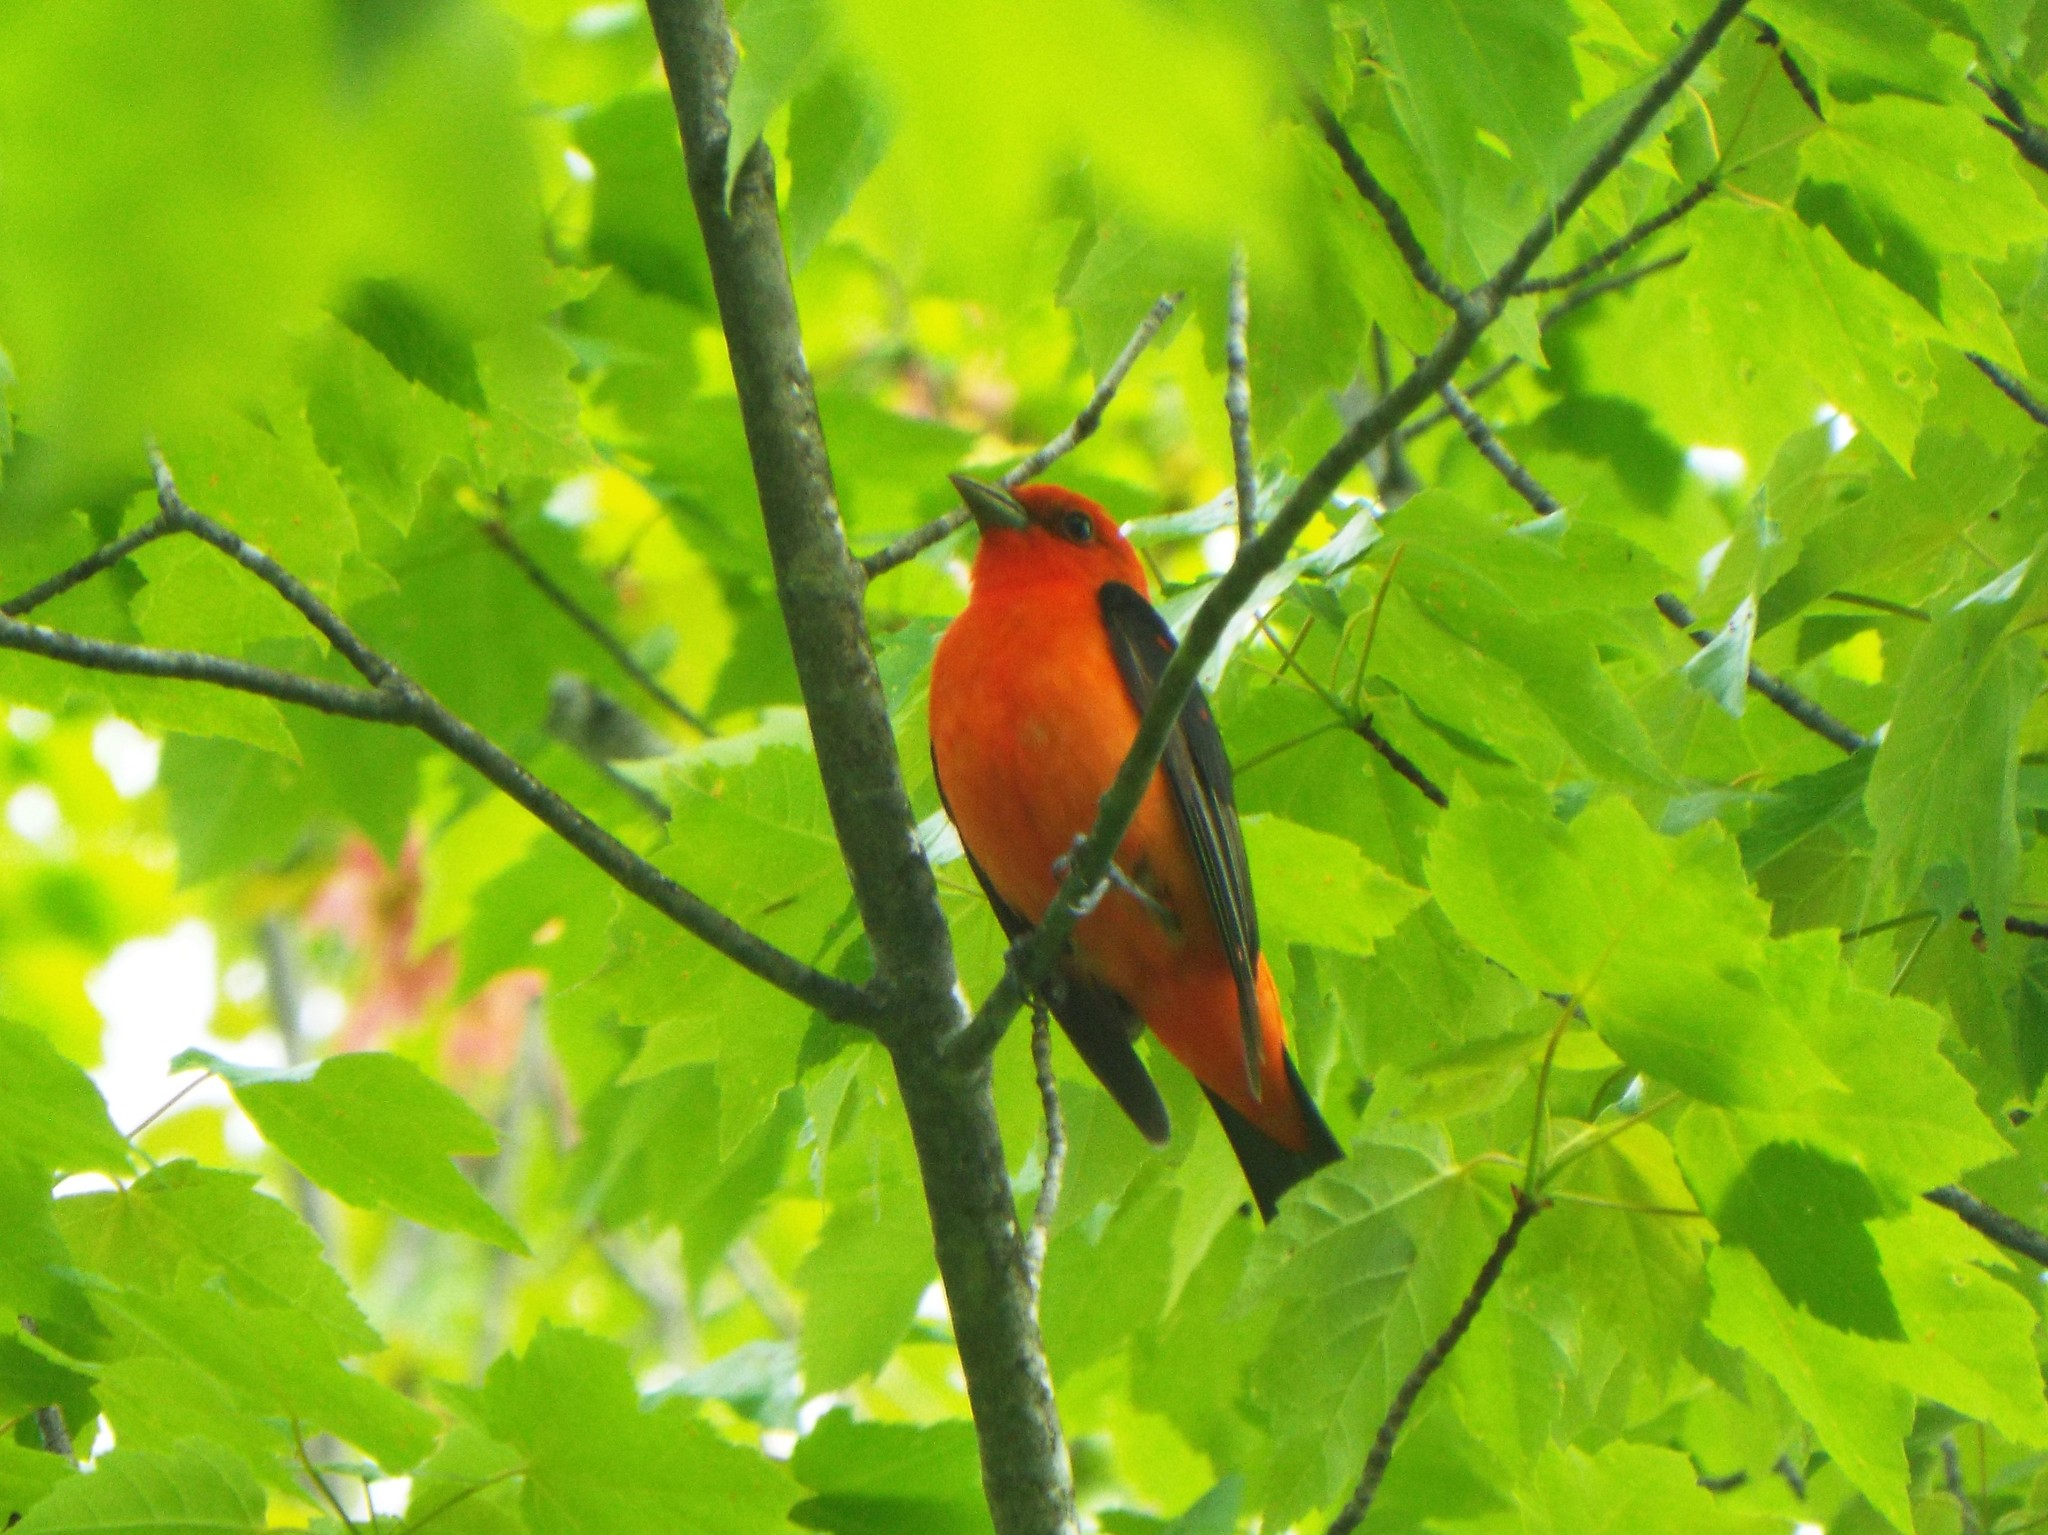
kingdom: Animalia
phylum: Chordata
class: Aves
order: Passeriformes
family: Cardinalidae
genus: Piranga
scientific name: Piranga olivacea
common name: Scarlet tanager
